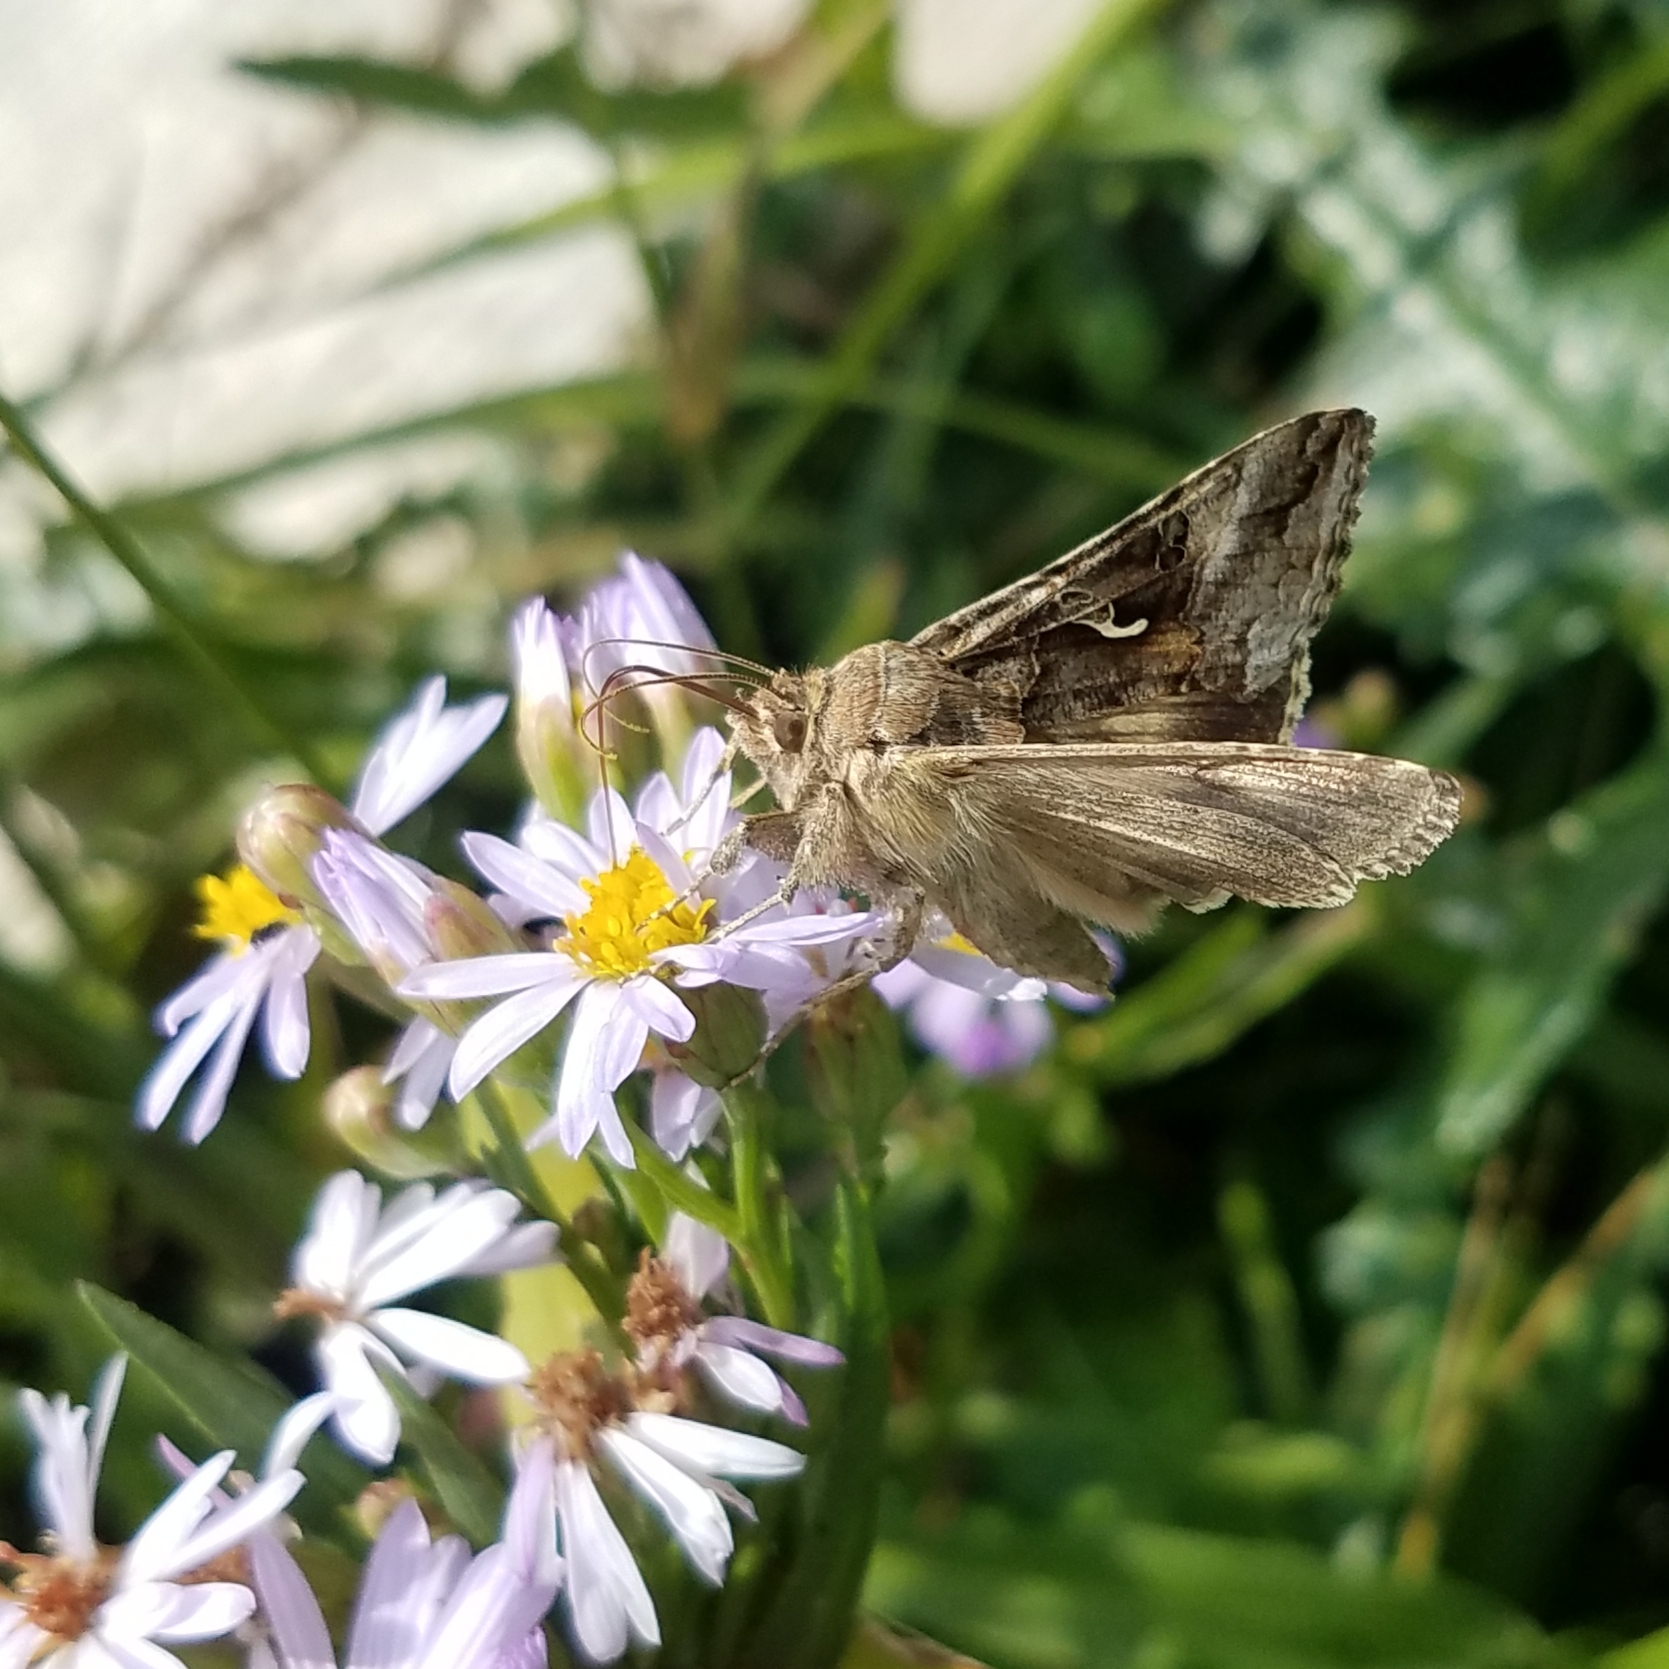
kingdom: Animalia
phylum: Arthropoda
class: Insecta
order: Lepidoptera
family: Noctuidae
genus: Autographa
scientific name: Autographa gamma
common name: Silver y
